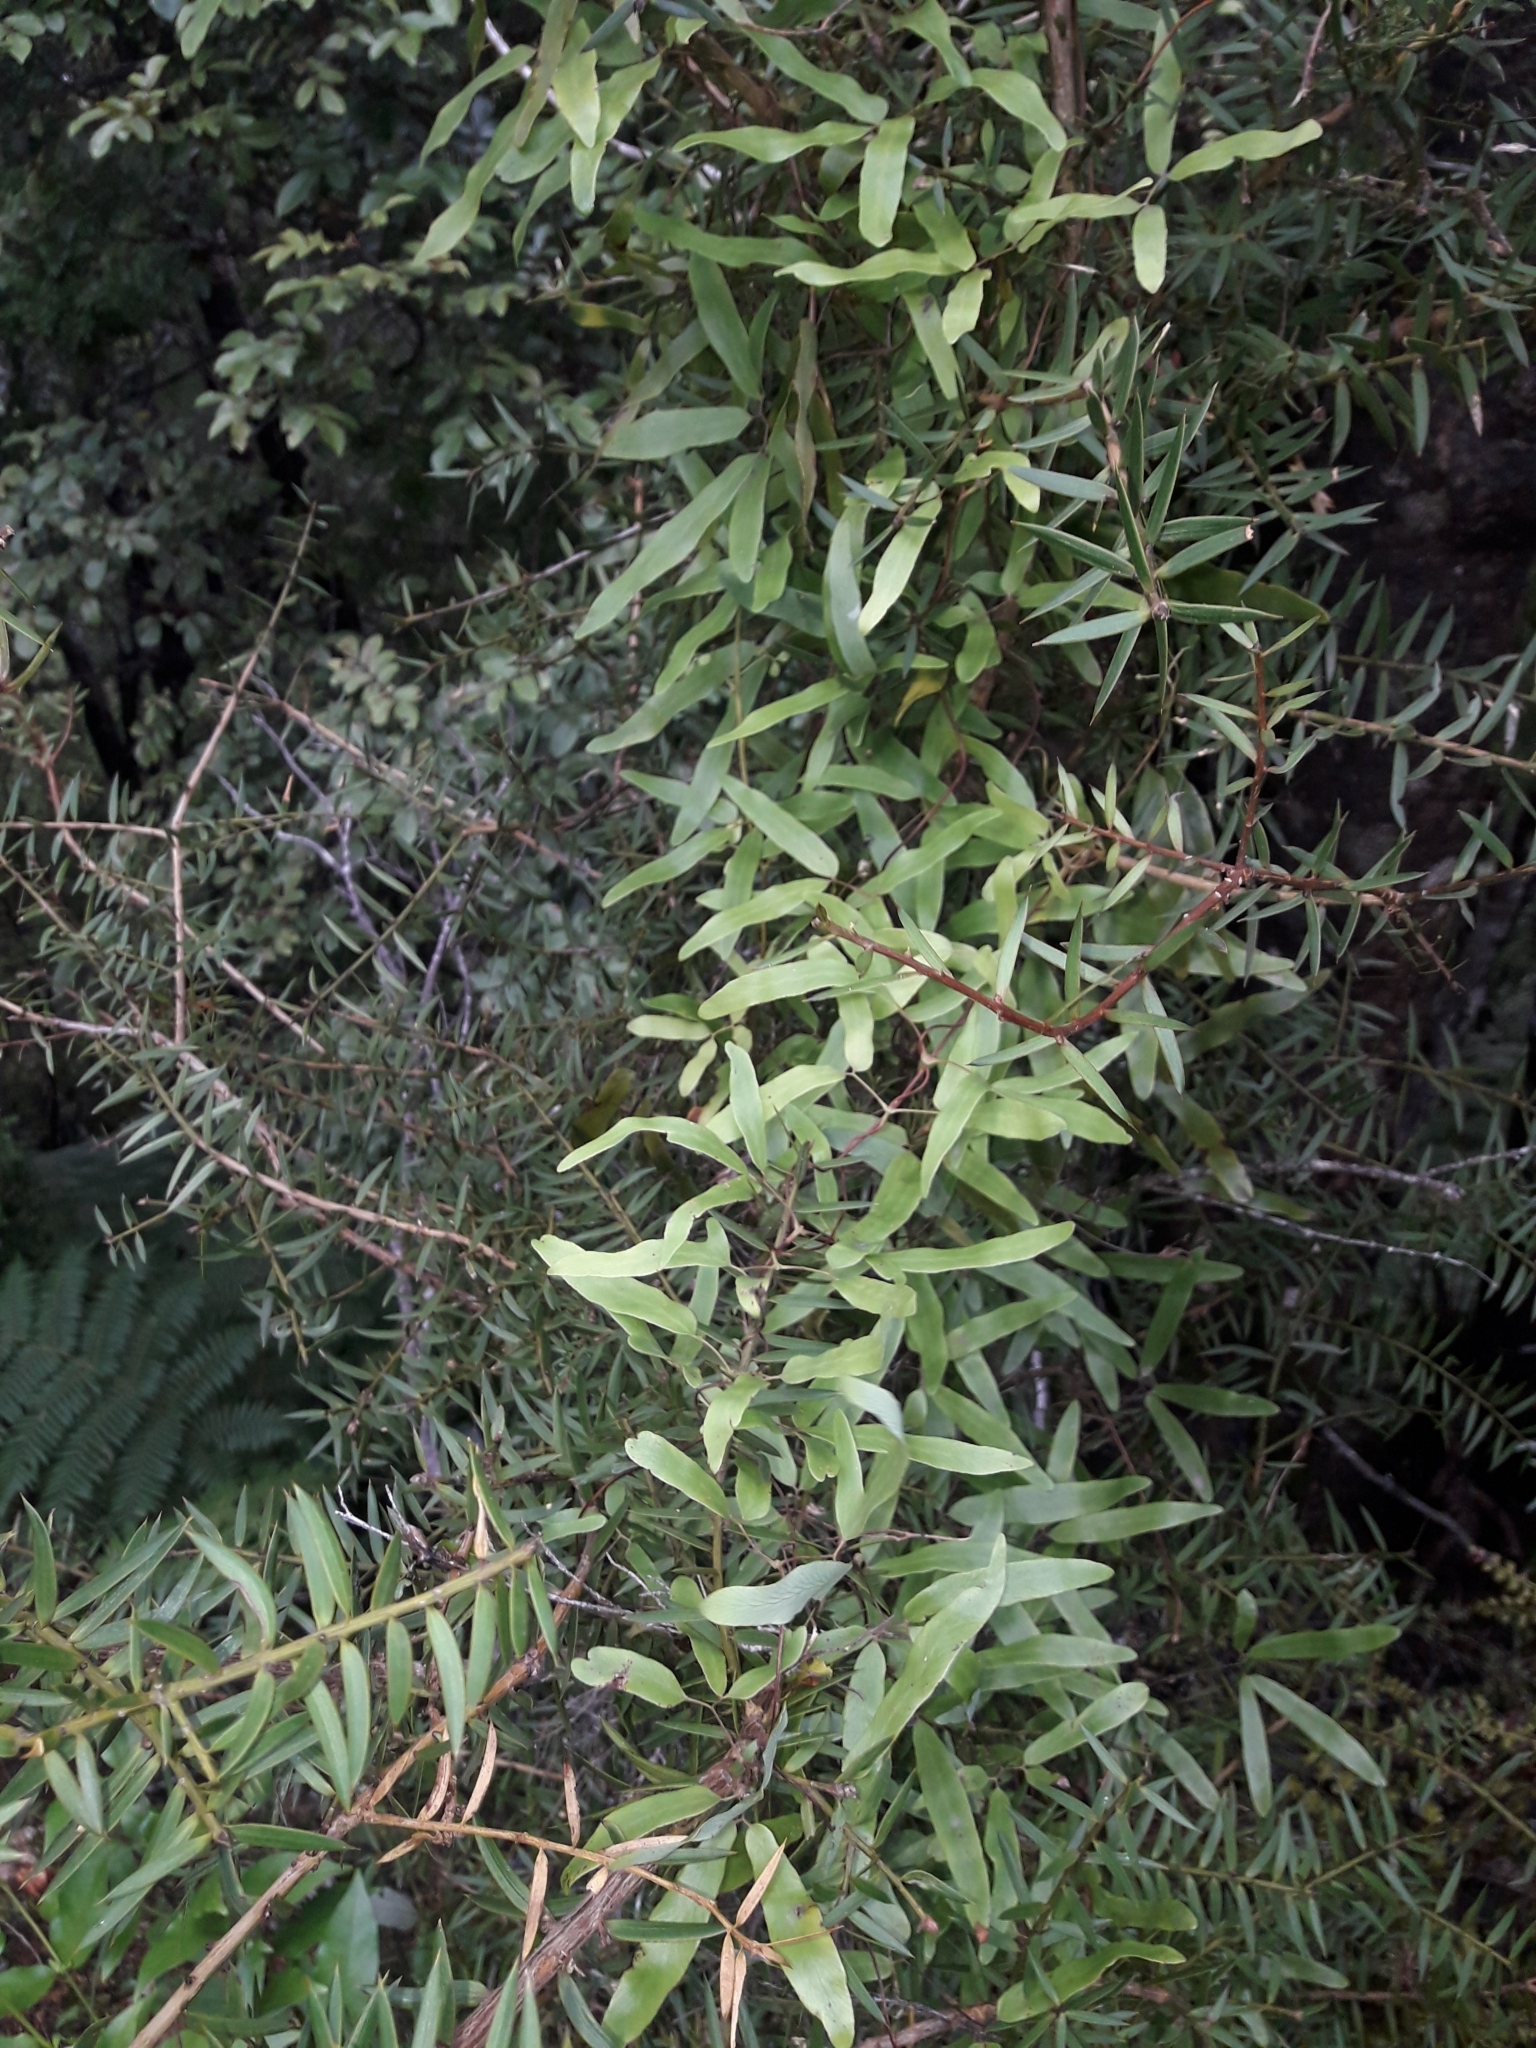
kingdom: Plantae
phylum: Tracheophyta
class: Polypodiopsida
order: Schizaeales
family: Lygodiaceae
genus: Lygodium
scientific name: Lygodium articulatum
